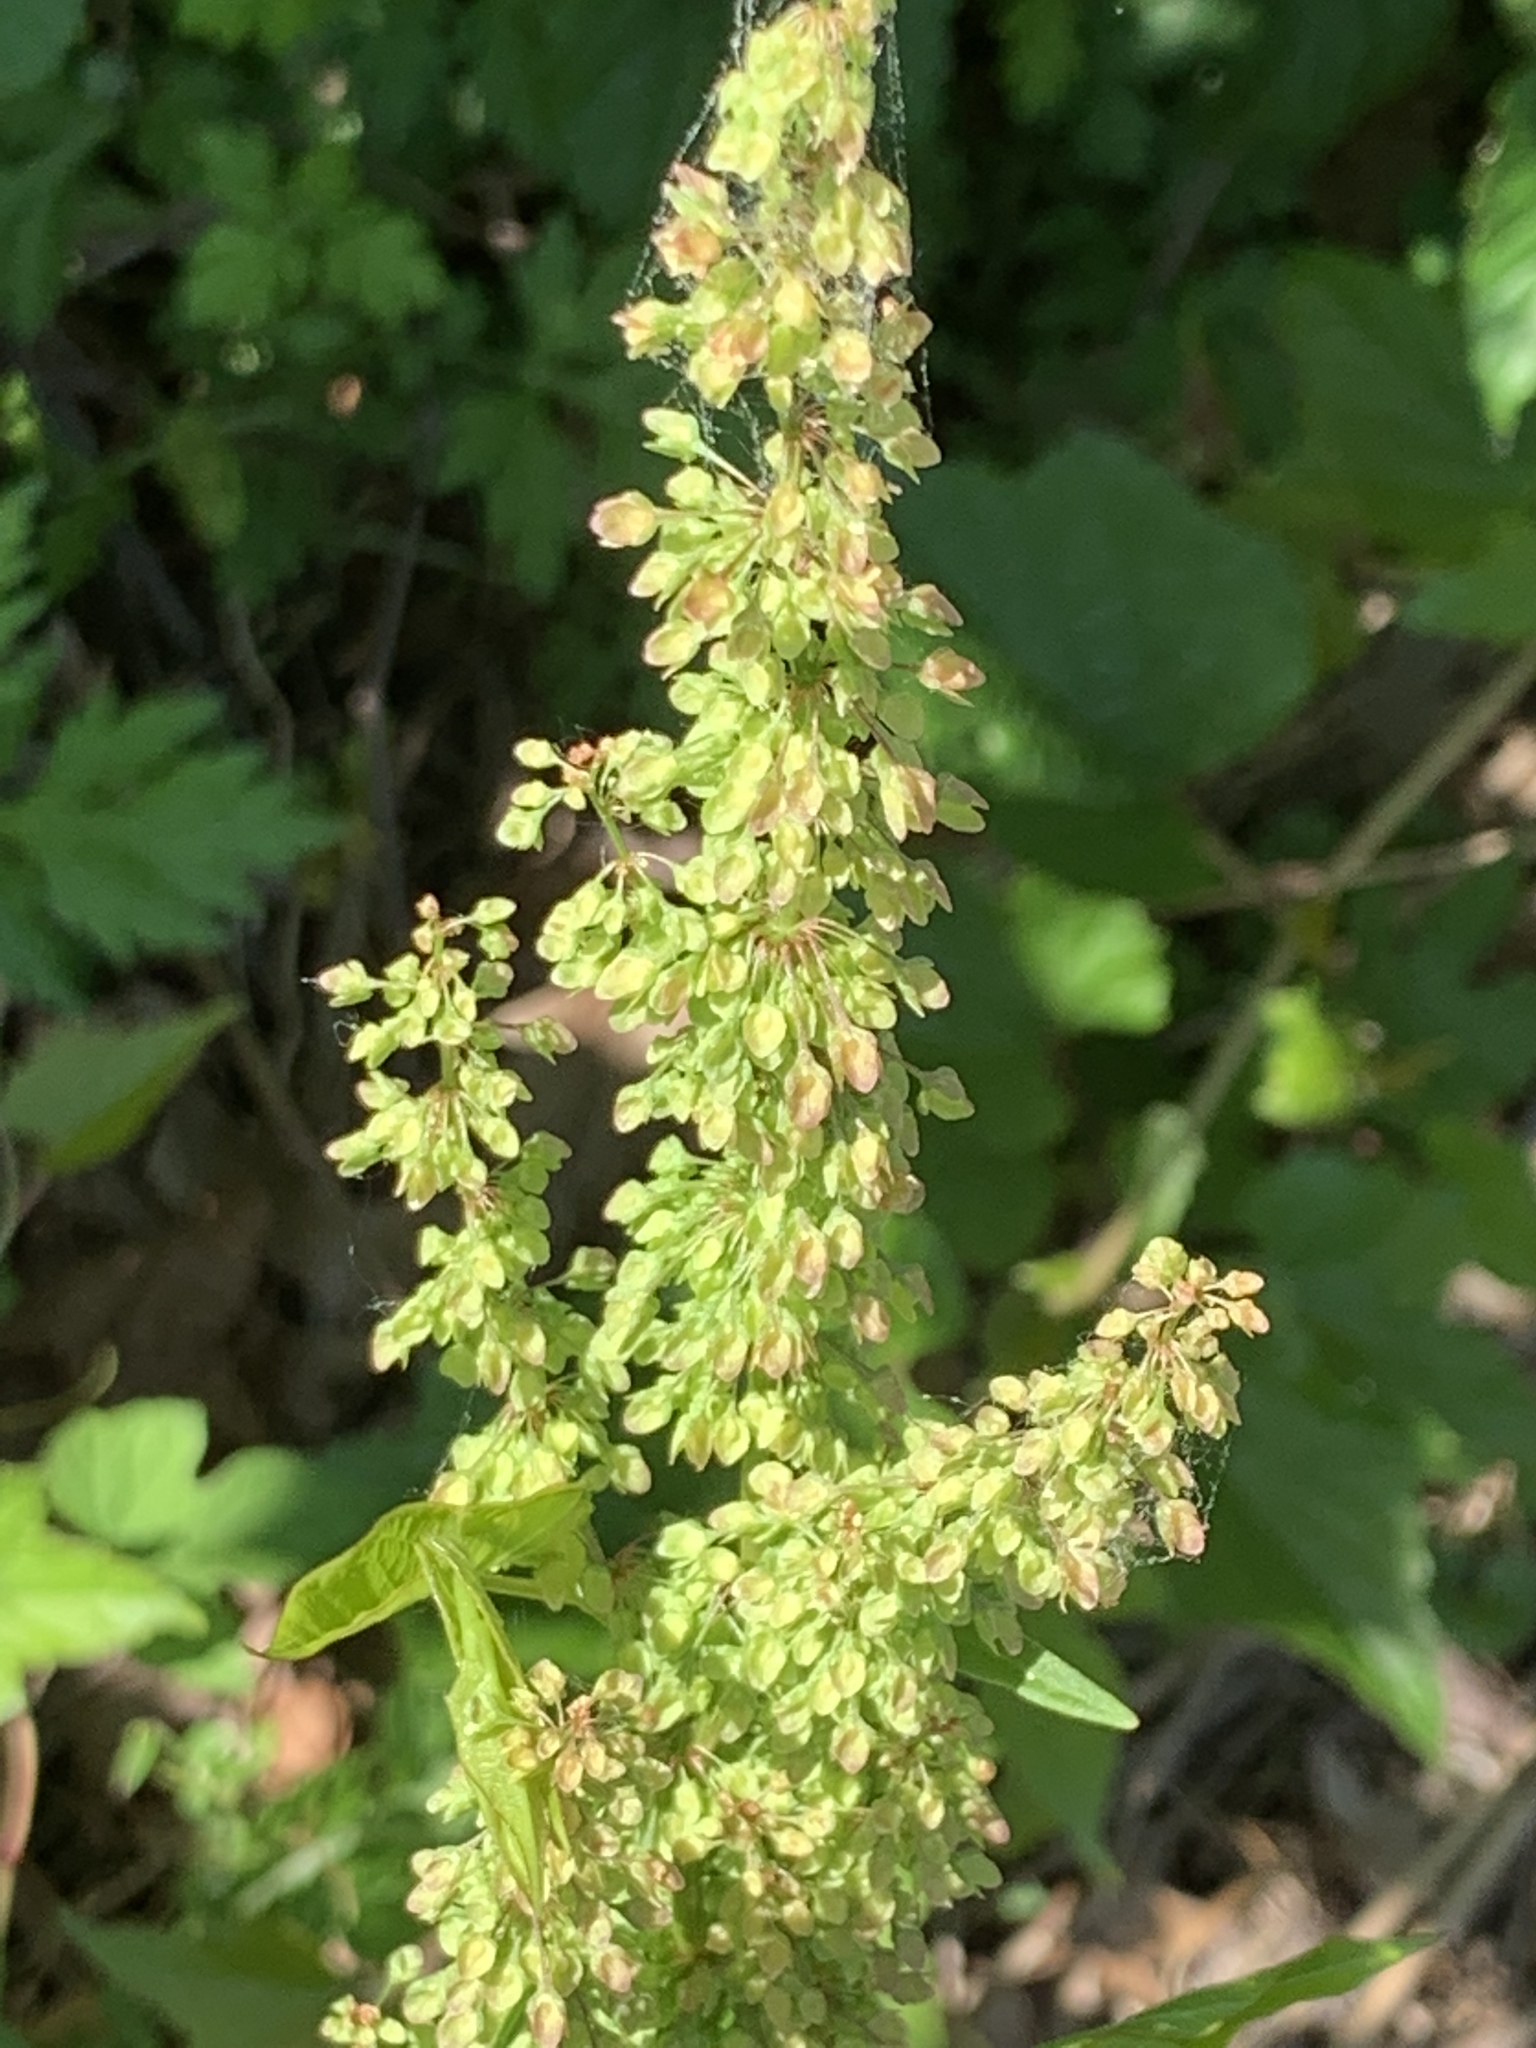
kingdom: Plantae
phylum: Tracheophyta
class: Magnoliopsida
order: Caryophyllales
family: Polygonaceae
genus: Rumex
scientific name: Rumex crispus
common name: Curled dock
